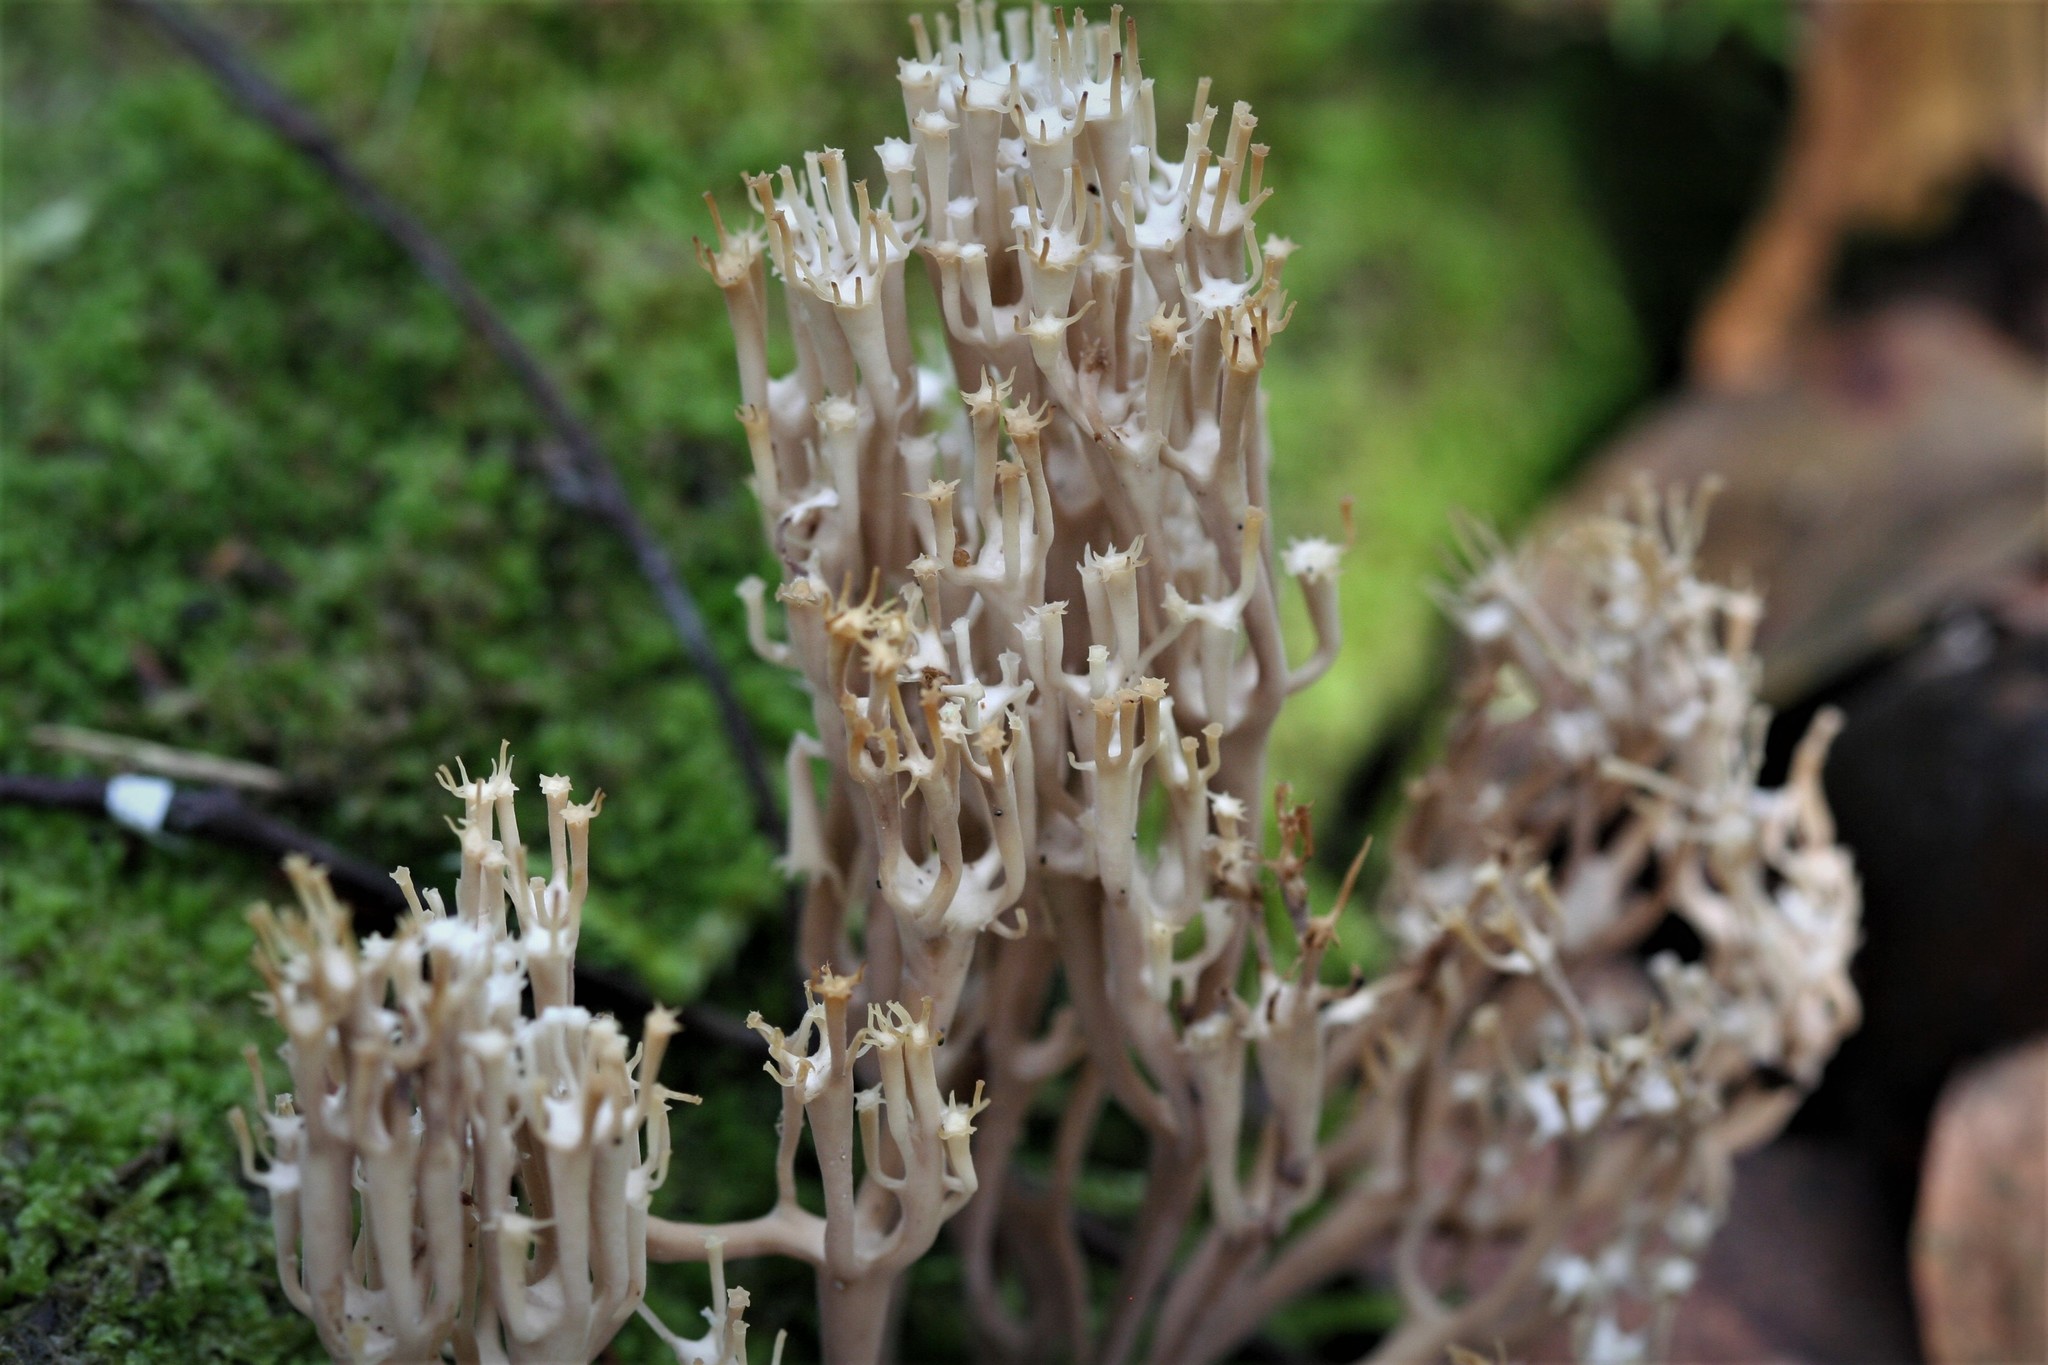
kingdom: Fungi
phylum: Basidiomycota
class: Agaricomycetes
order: Russulales
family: Auriscalpiaceae
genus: Artomyces
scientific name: Artomyces pyxidatus
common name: Crown-tipped coral fungus
